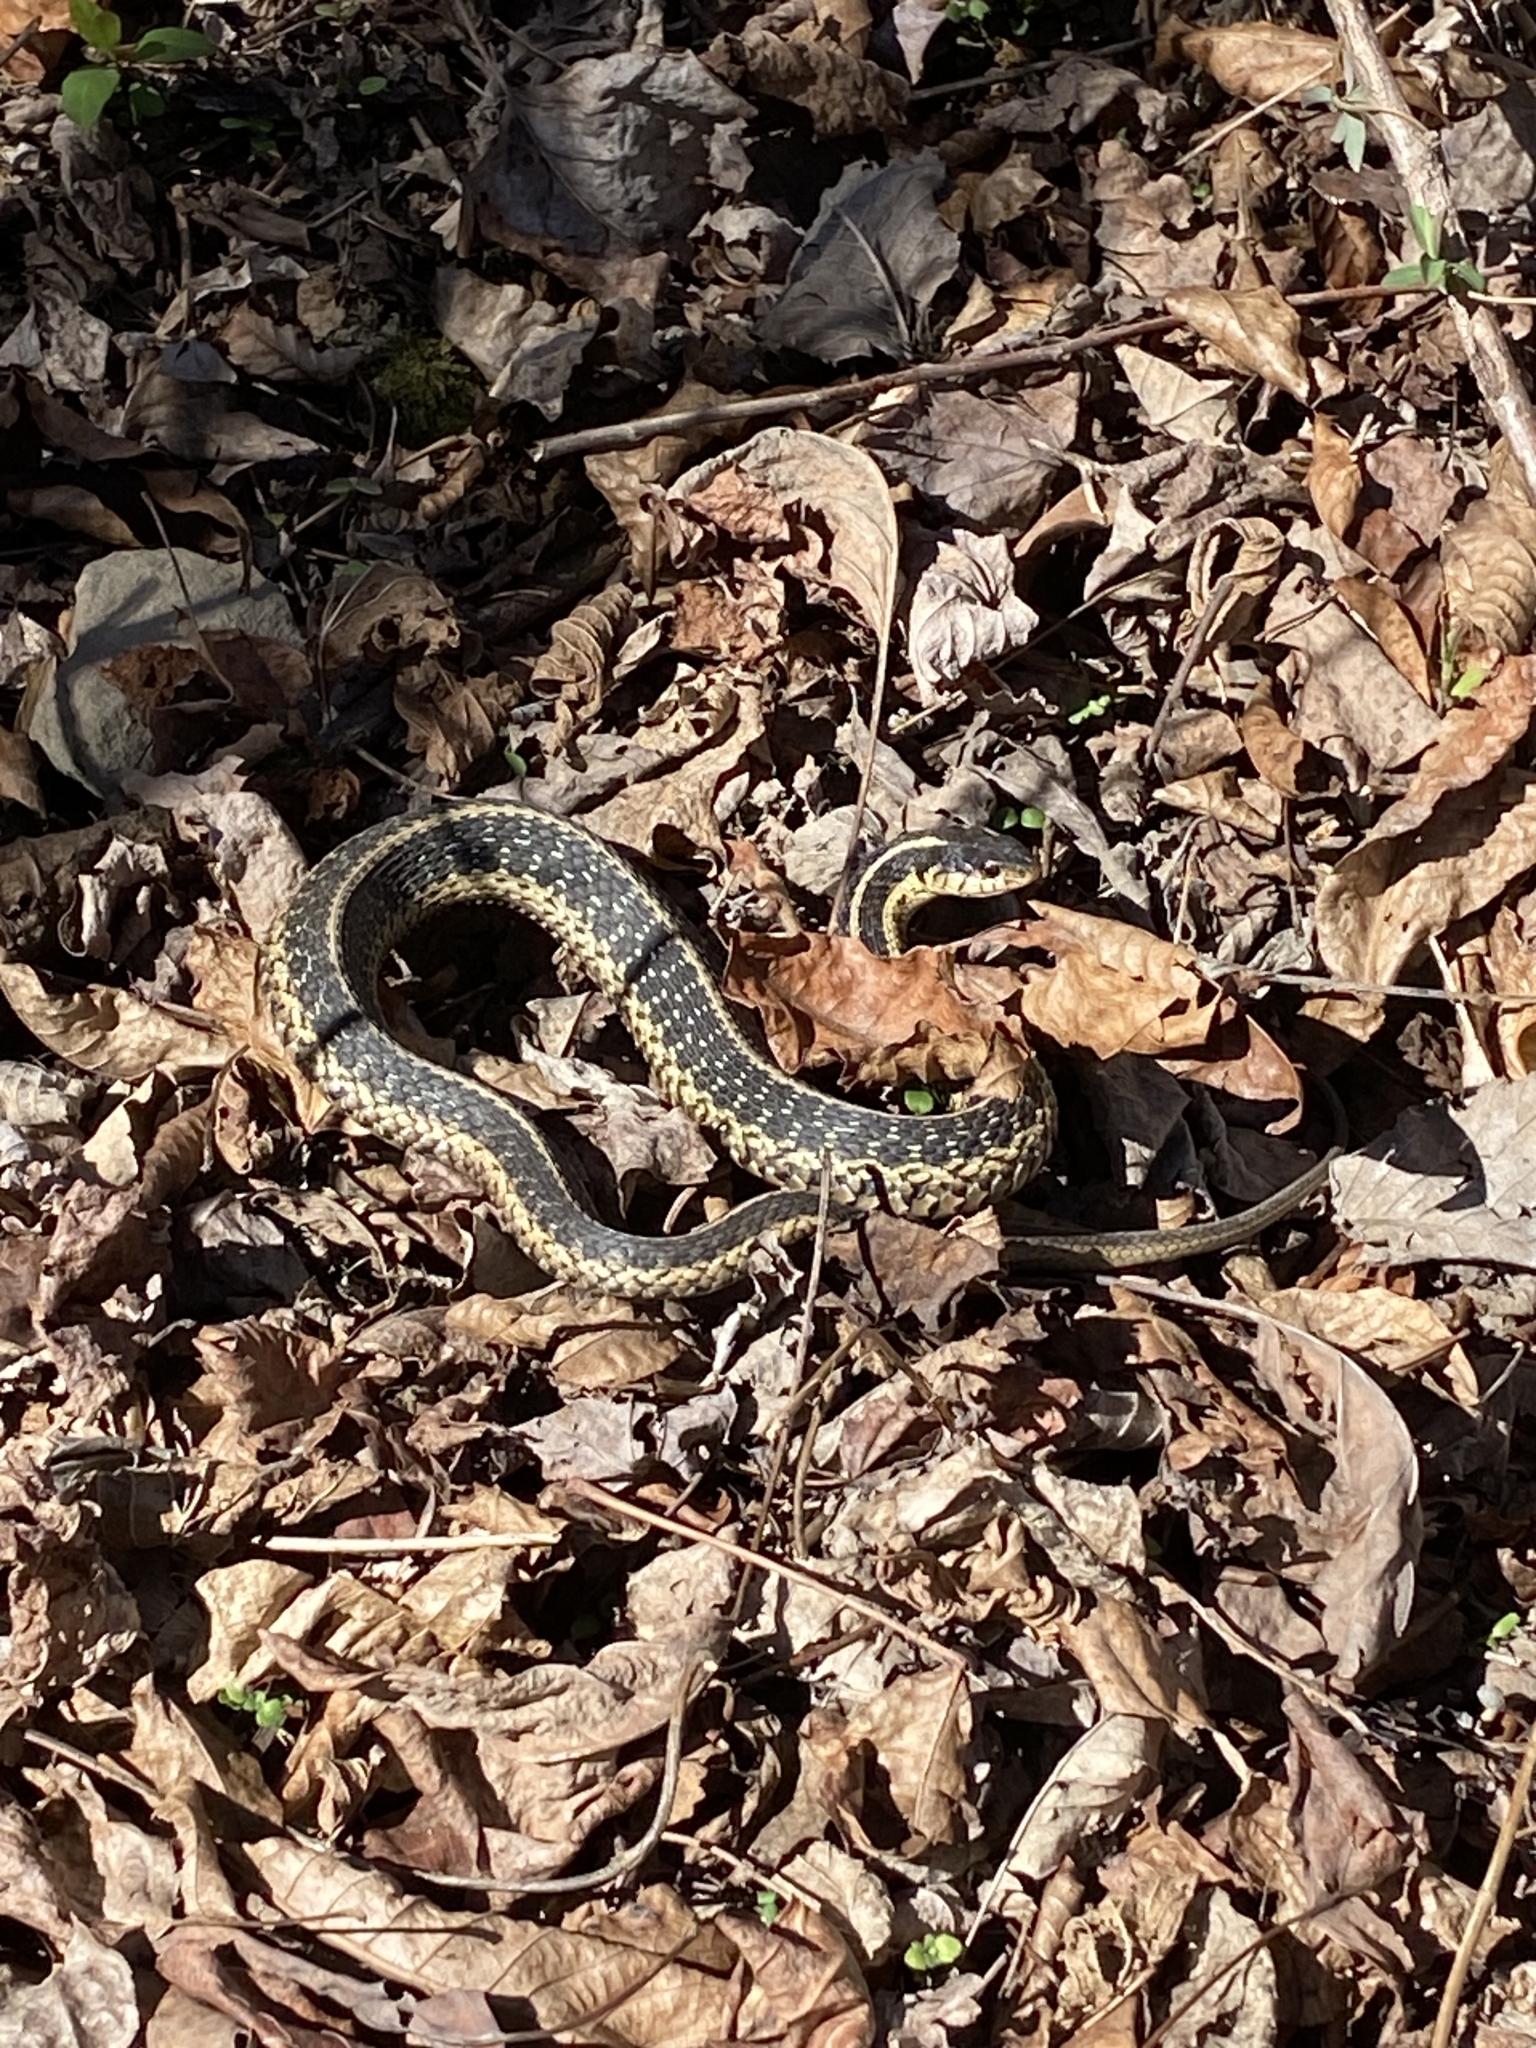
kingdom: Animalia
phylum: Chordata
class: Squamata
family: Colubridae
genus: Thamnophis
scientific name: Thamnophis sirtalis
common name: Common garter snake
